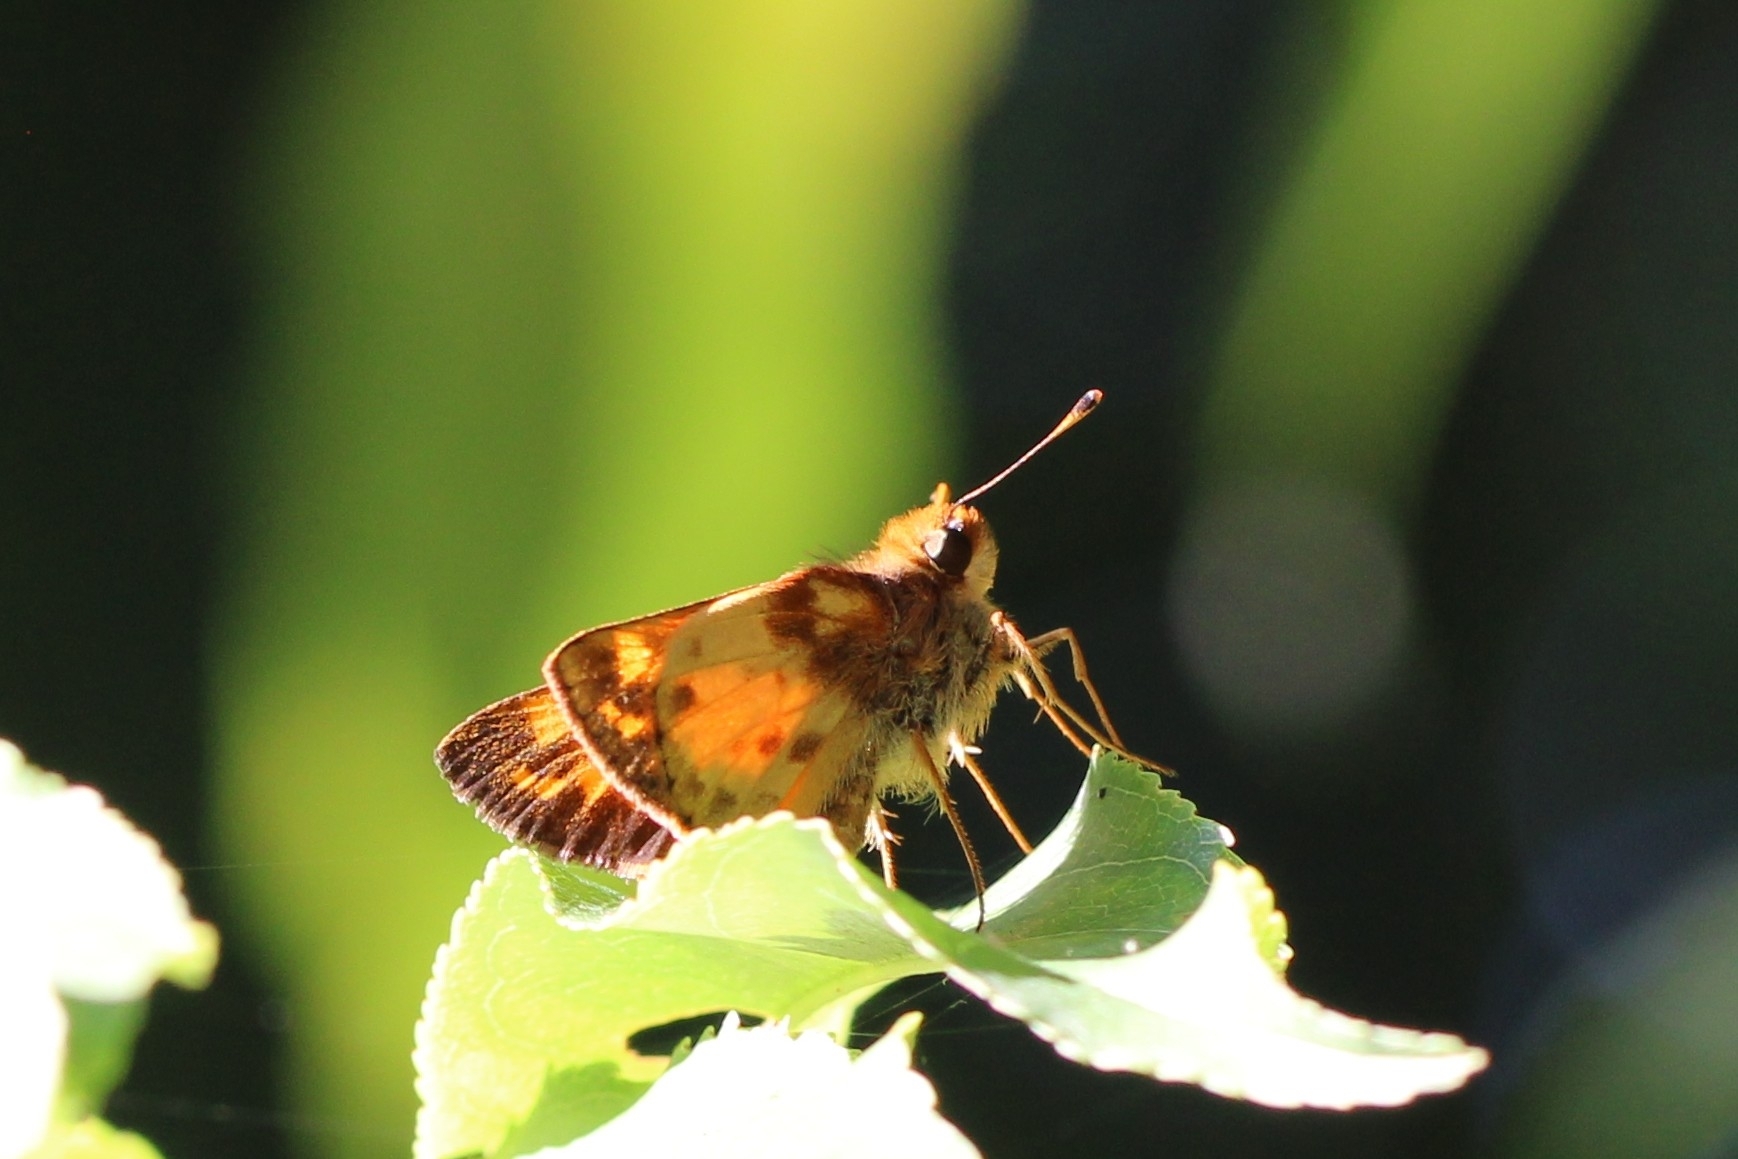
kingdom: Animalia
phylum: Arthropoda
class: Insecta
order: Lepidoptera
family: Hesperiidae
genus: Lon
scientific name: Lon zabulon
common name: Zabulon skipper
